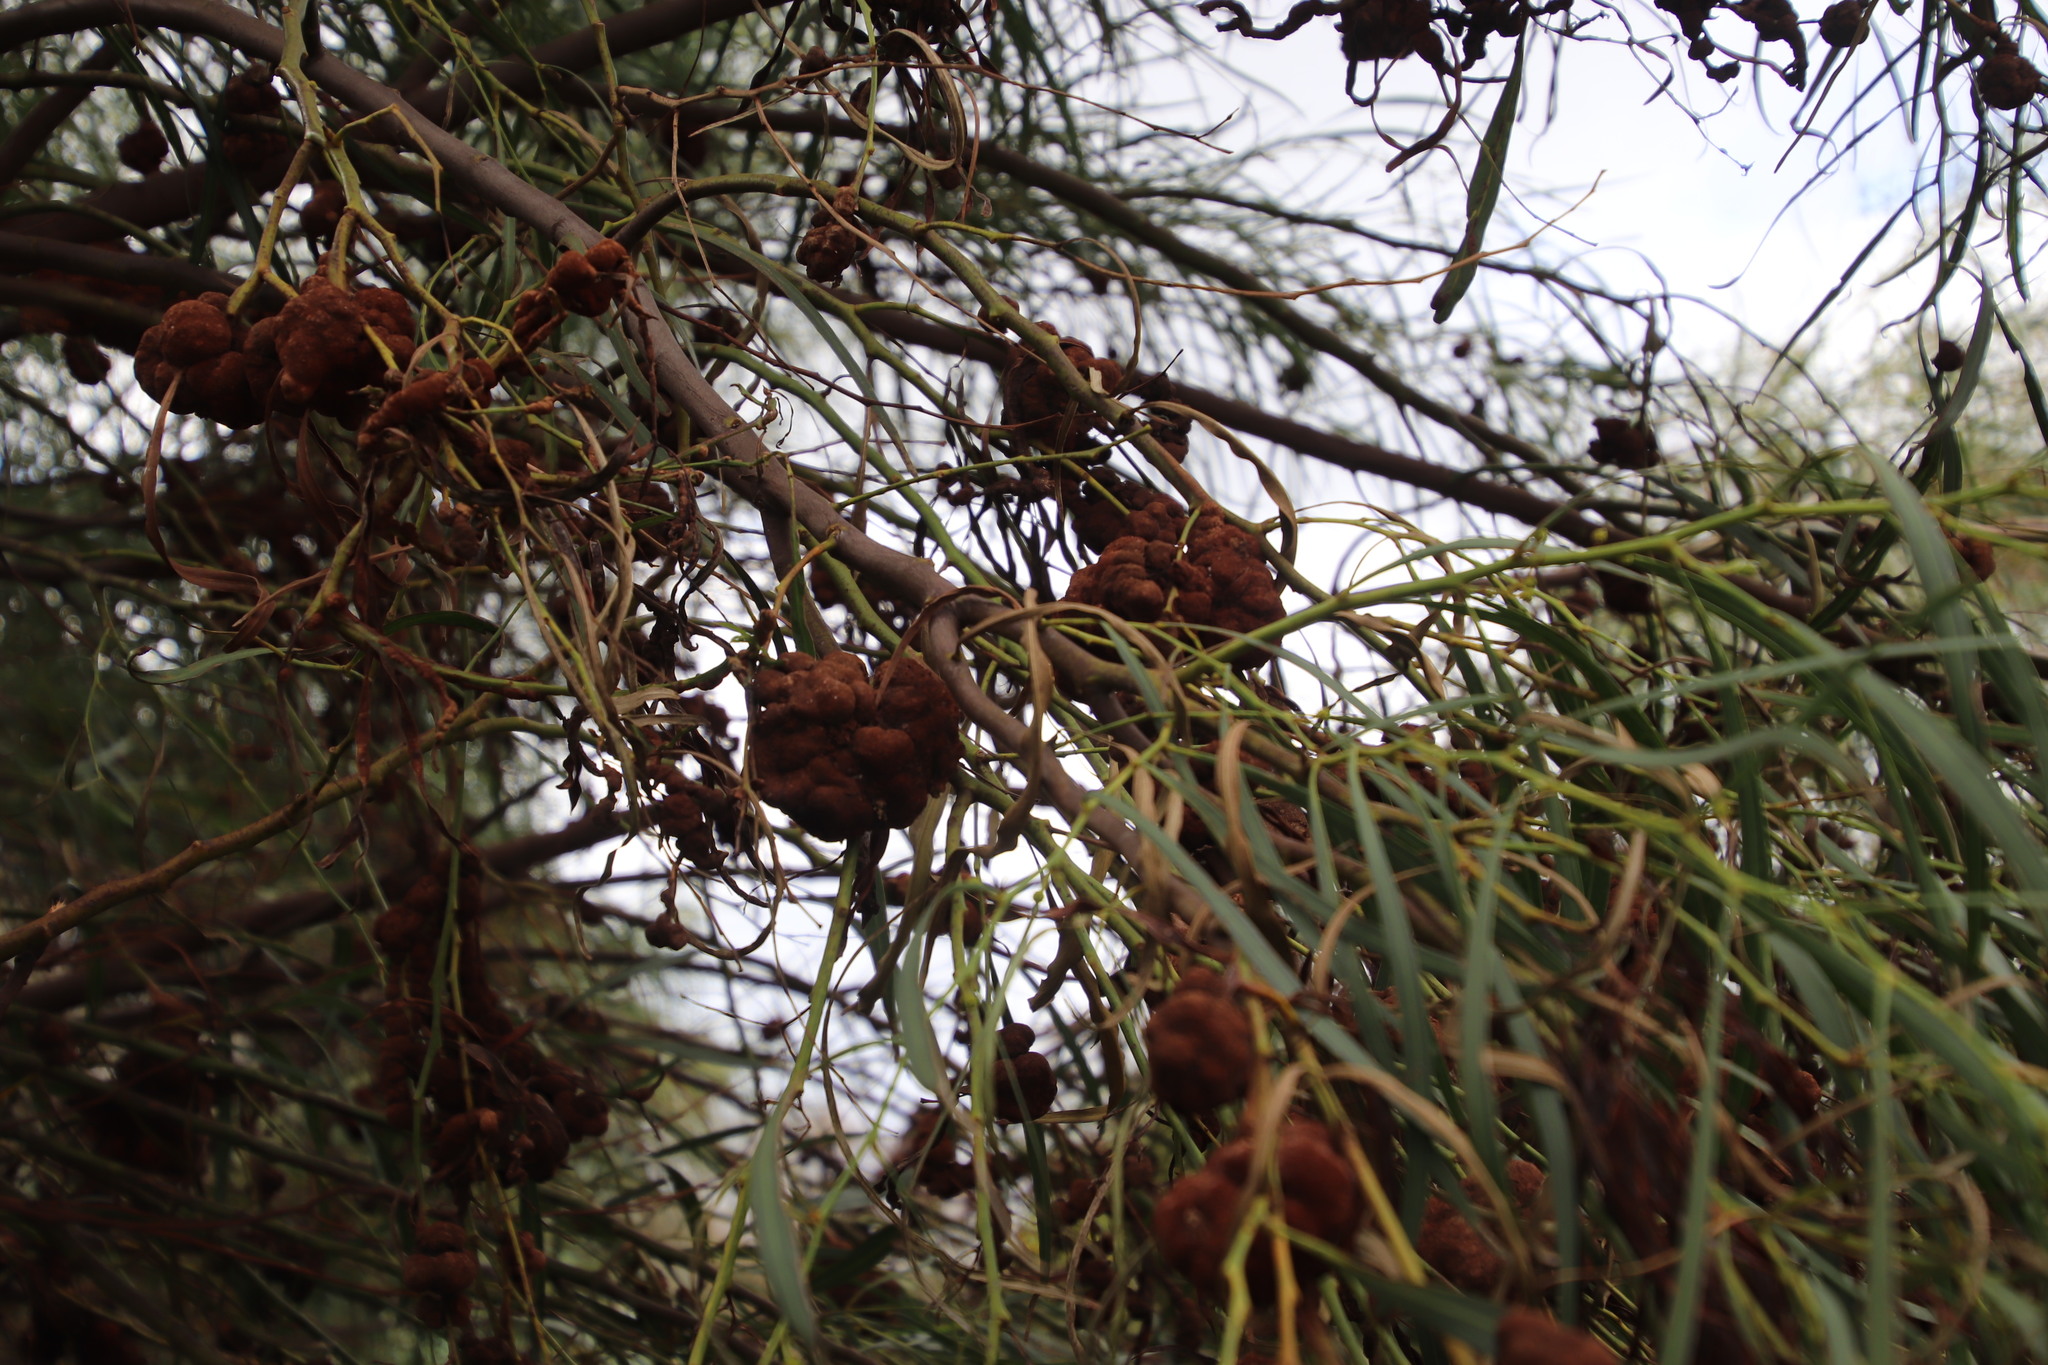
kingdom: Plantae
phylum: Tracheophyta
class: Magnoliopsida
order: Fabales
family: Fabaceae
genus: Acacia
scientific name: Acacia saligna
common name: Orange wattle
